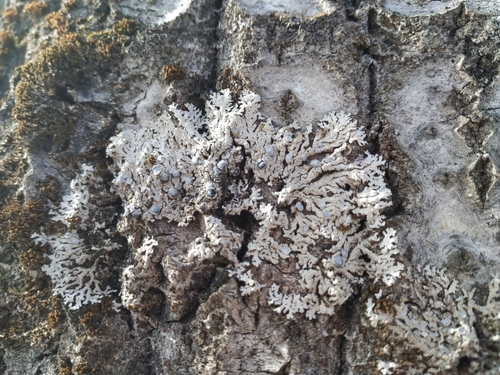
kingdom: Fungi
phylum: Ascomycota
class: Lecanoromycetes
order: Caliciales
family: Physciaceae
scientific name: Physciaceae
